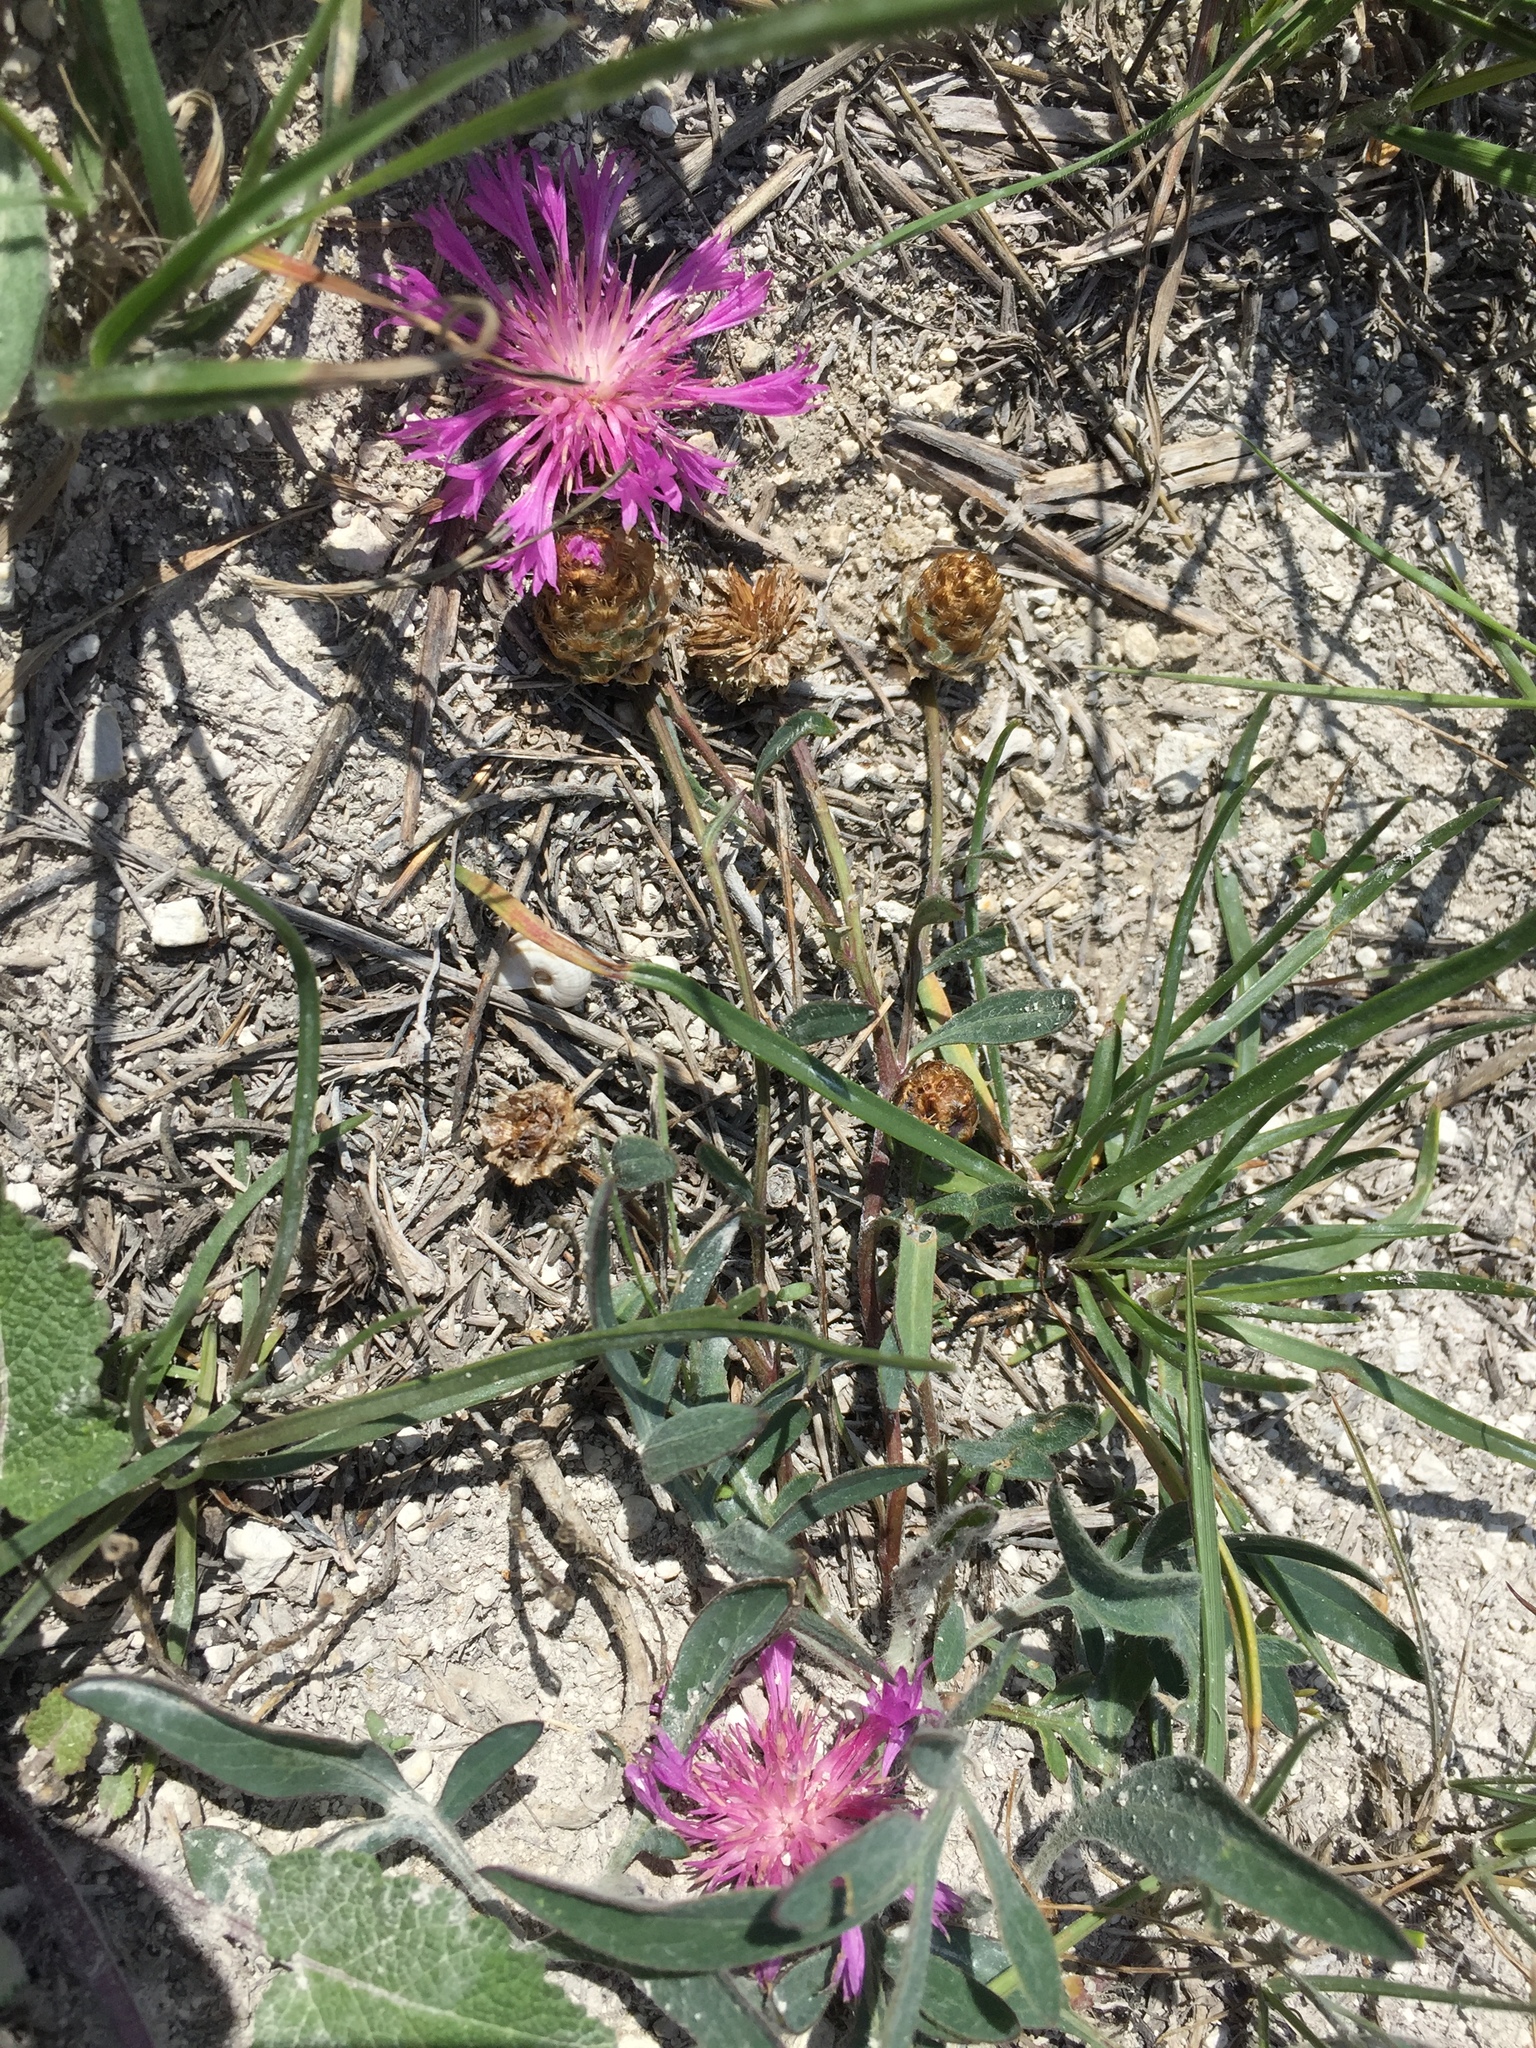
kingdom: Plantae
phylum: Tracheophyta
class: Magnoliopsida
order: Asterales
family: Asteraceae
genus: Psephellus
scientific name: Psephellus marschallianus
